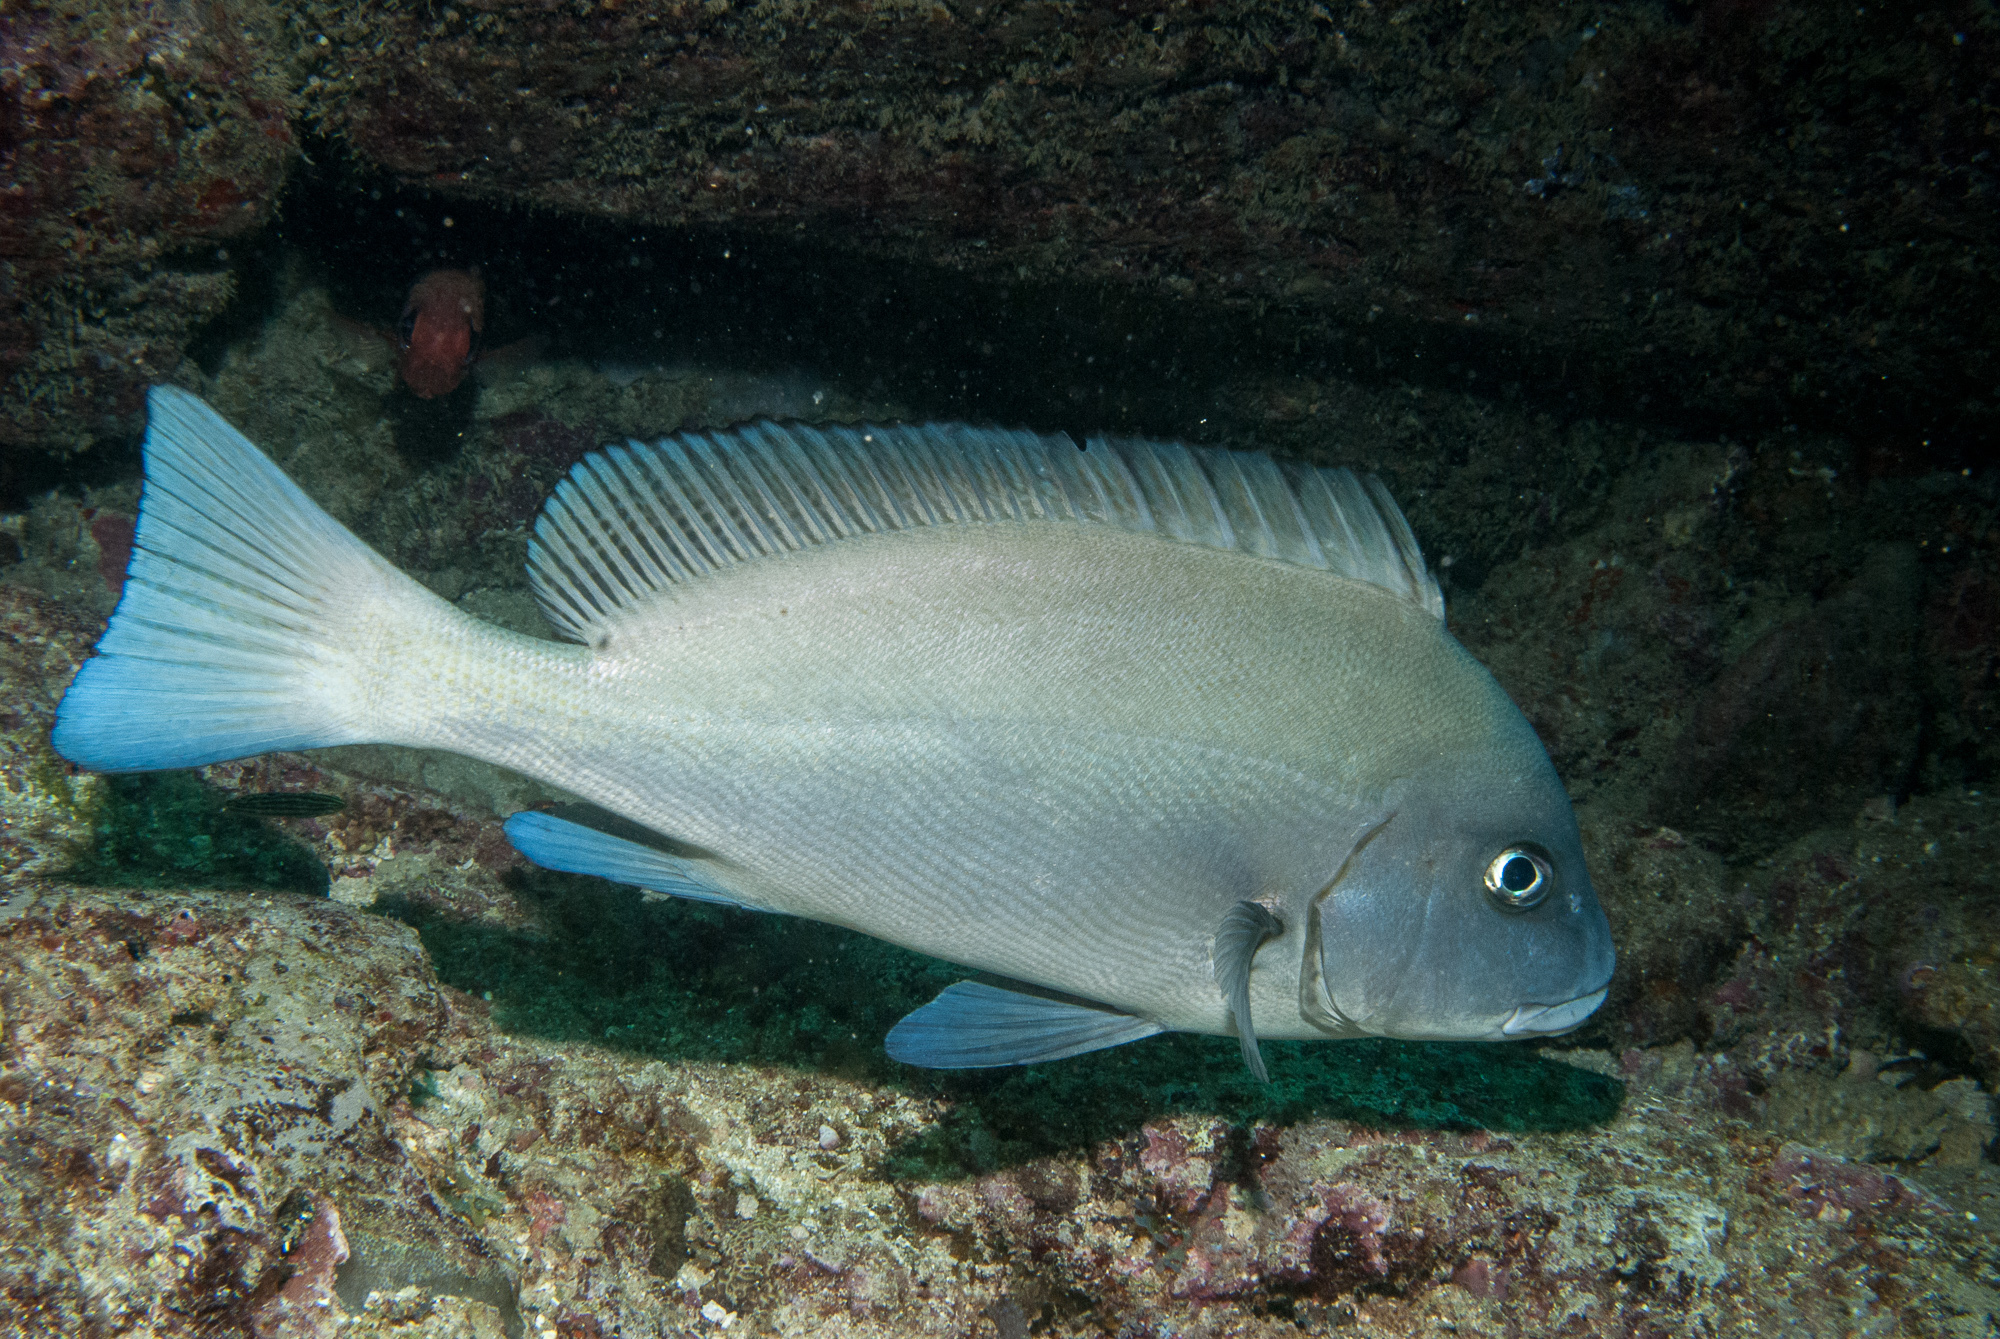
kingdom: Animalia
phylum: Chordata
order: Perciformes
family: Haemulidae
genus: Diagramma
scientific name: Diagramma pictum
